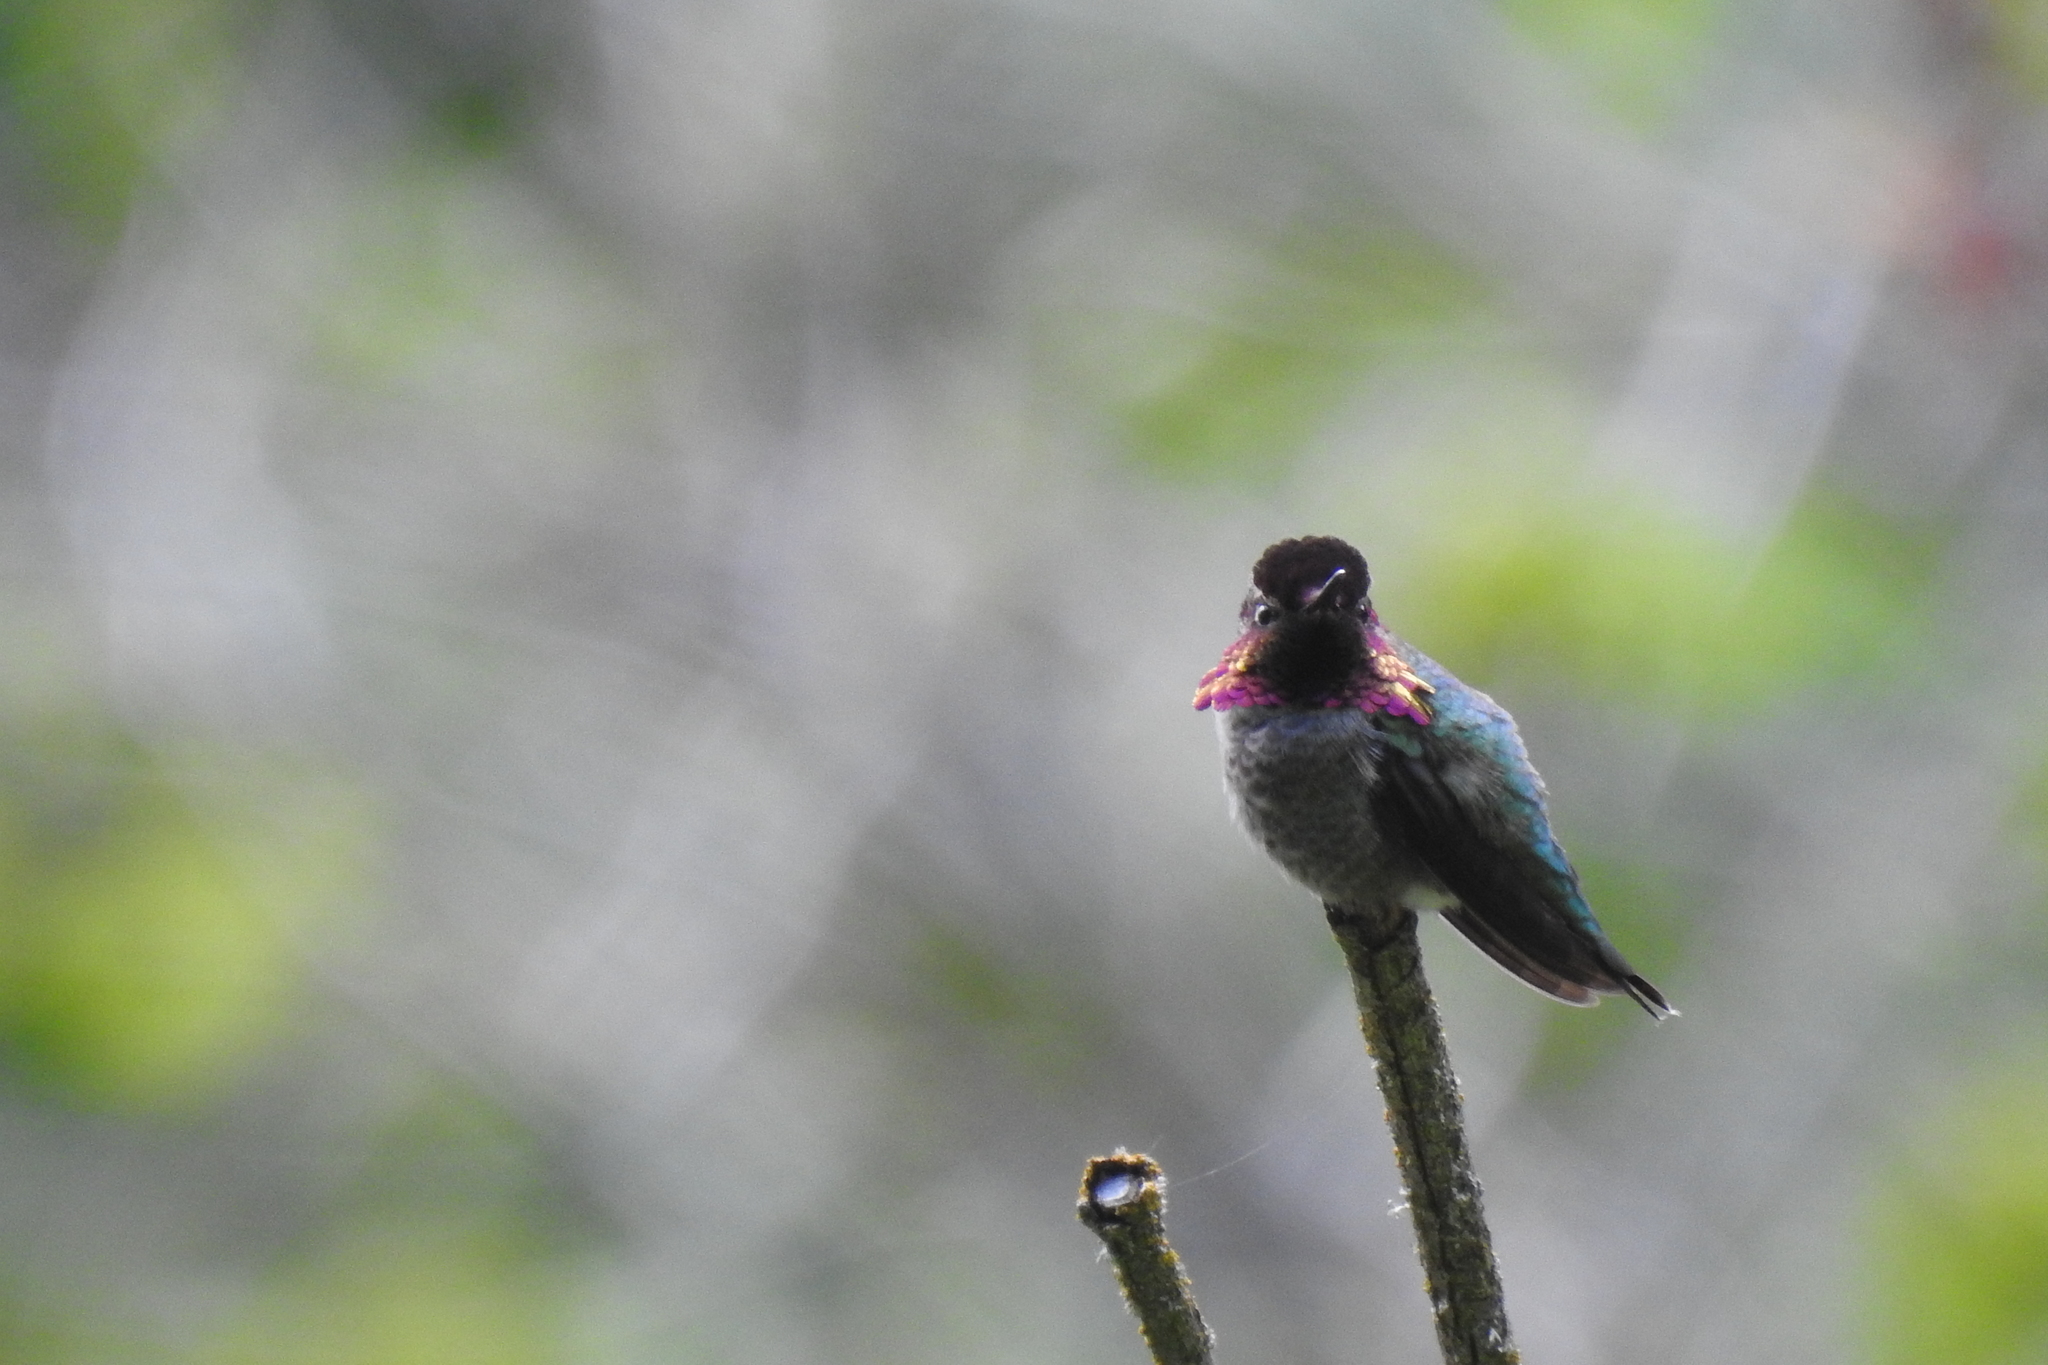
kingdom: Animalia
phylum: Chordata
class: Aves
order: Apodiformes
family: Trochilidae
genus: Calypte
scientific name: Calypte anna
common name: Anna's hummingbird
